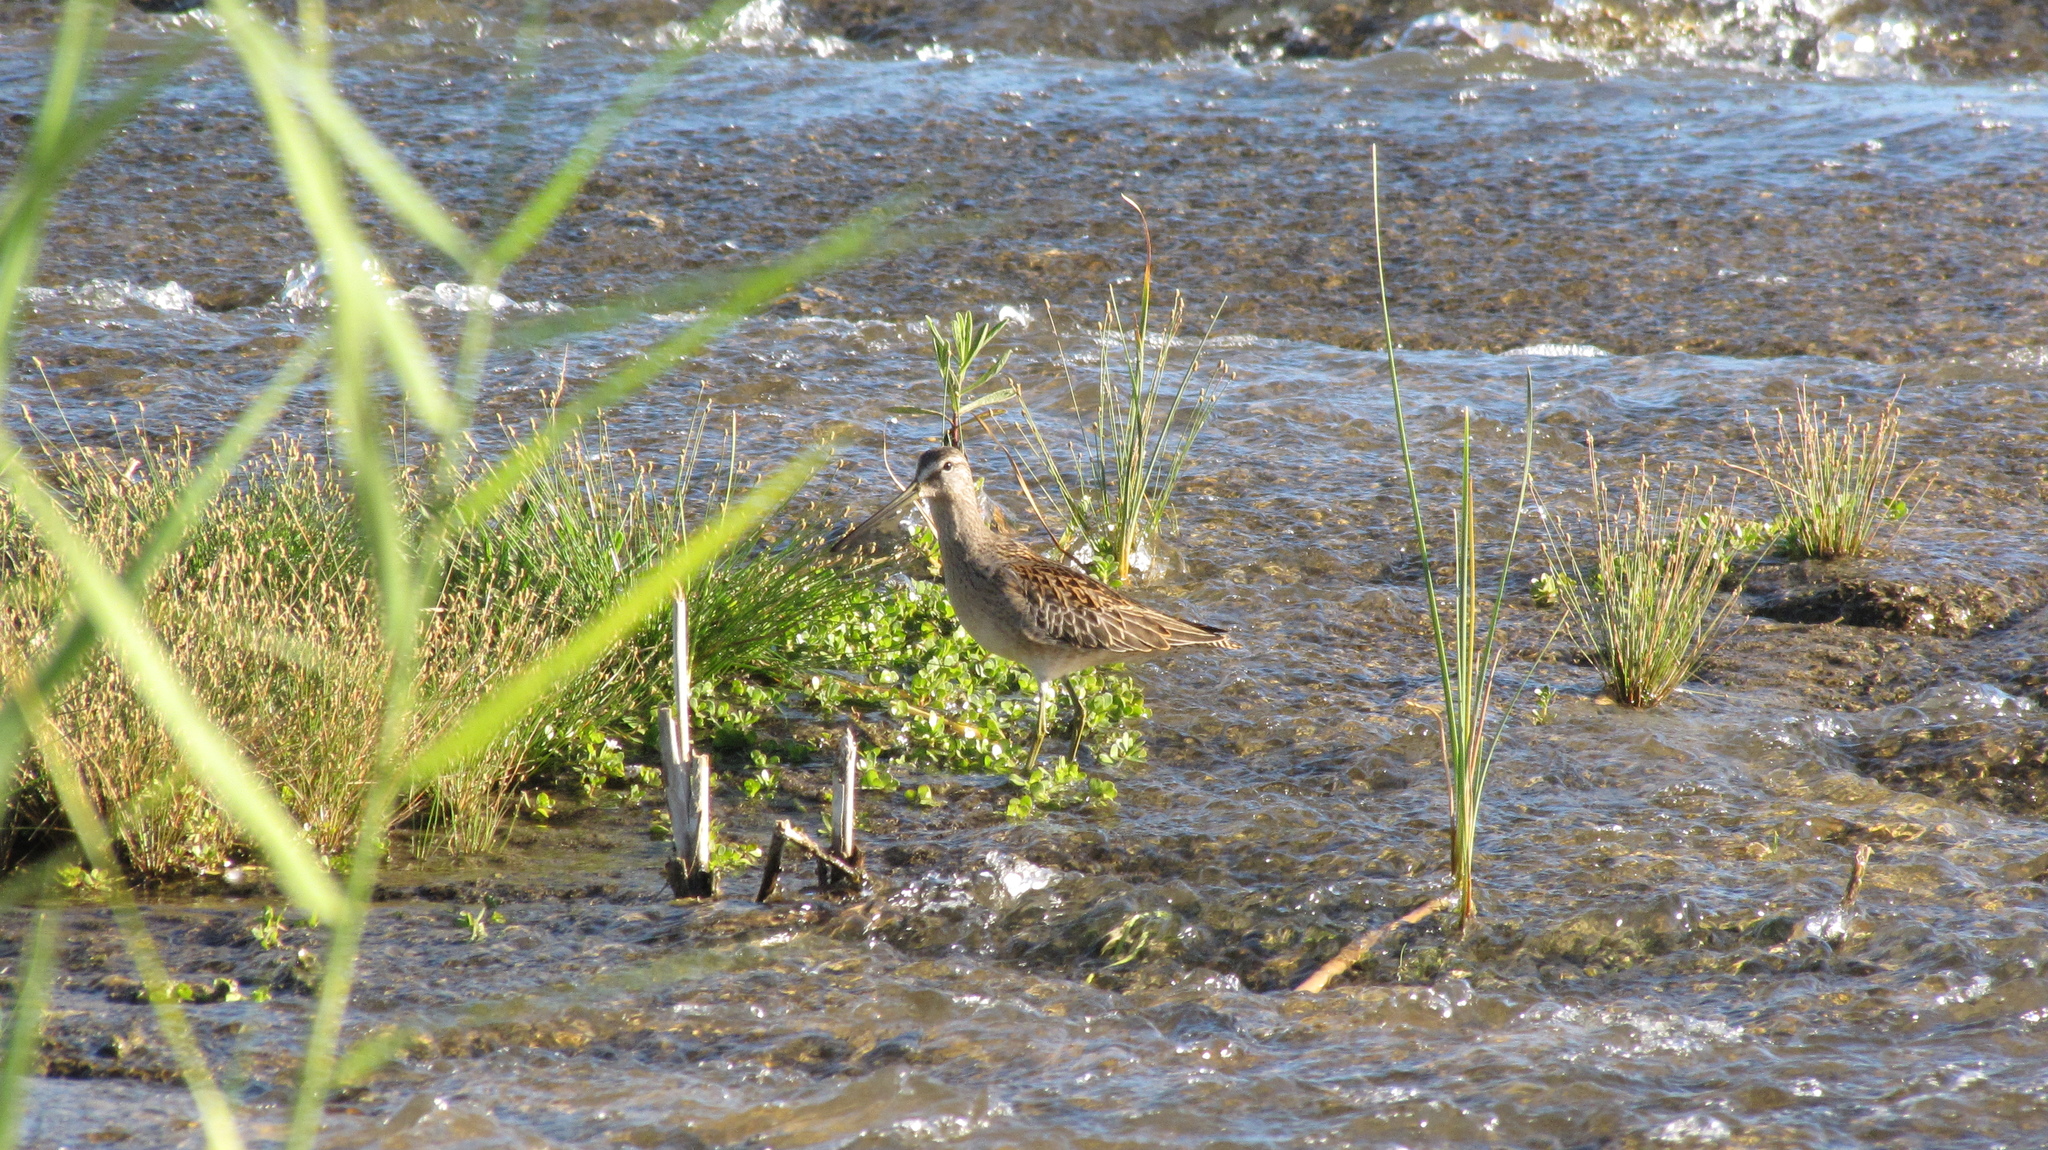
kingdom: Animalia
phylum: Chordata
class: Aves
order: Charadriiformes
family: Scolopacidae
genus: Limnodromus
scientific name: Limnodromus scolopaceus
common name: Long-billed dowitcher
